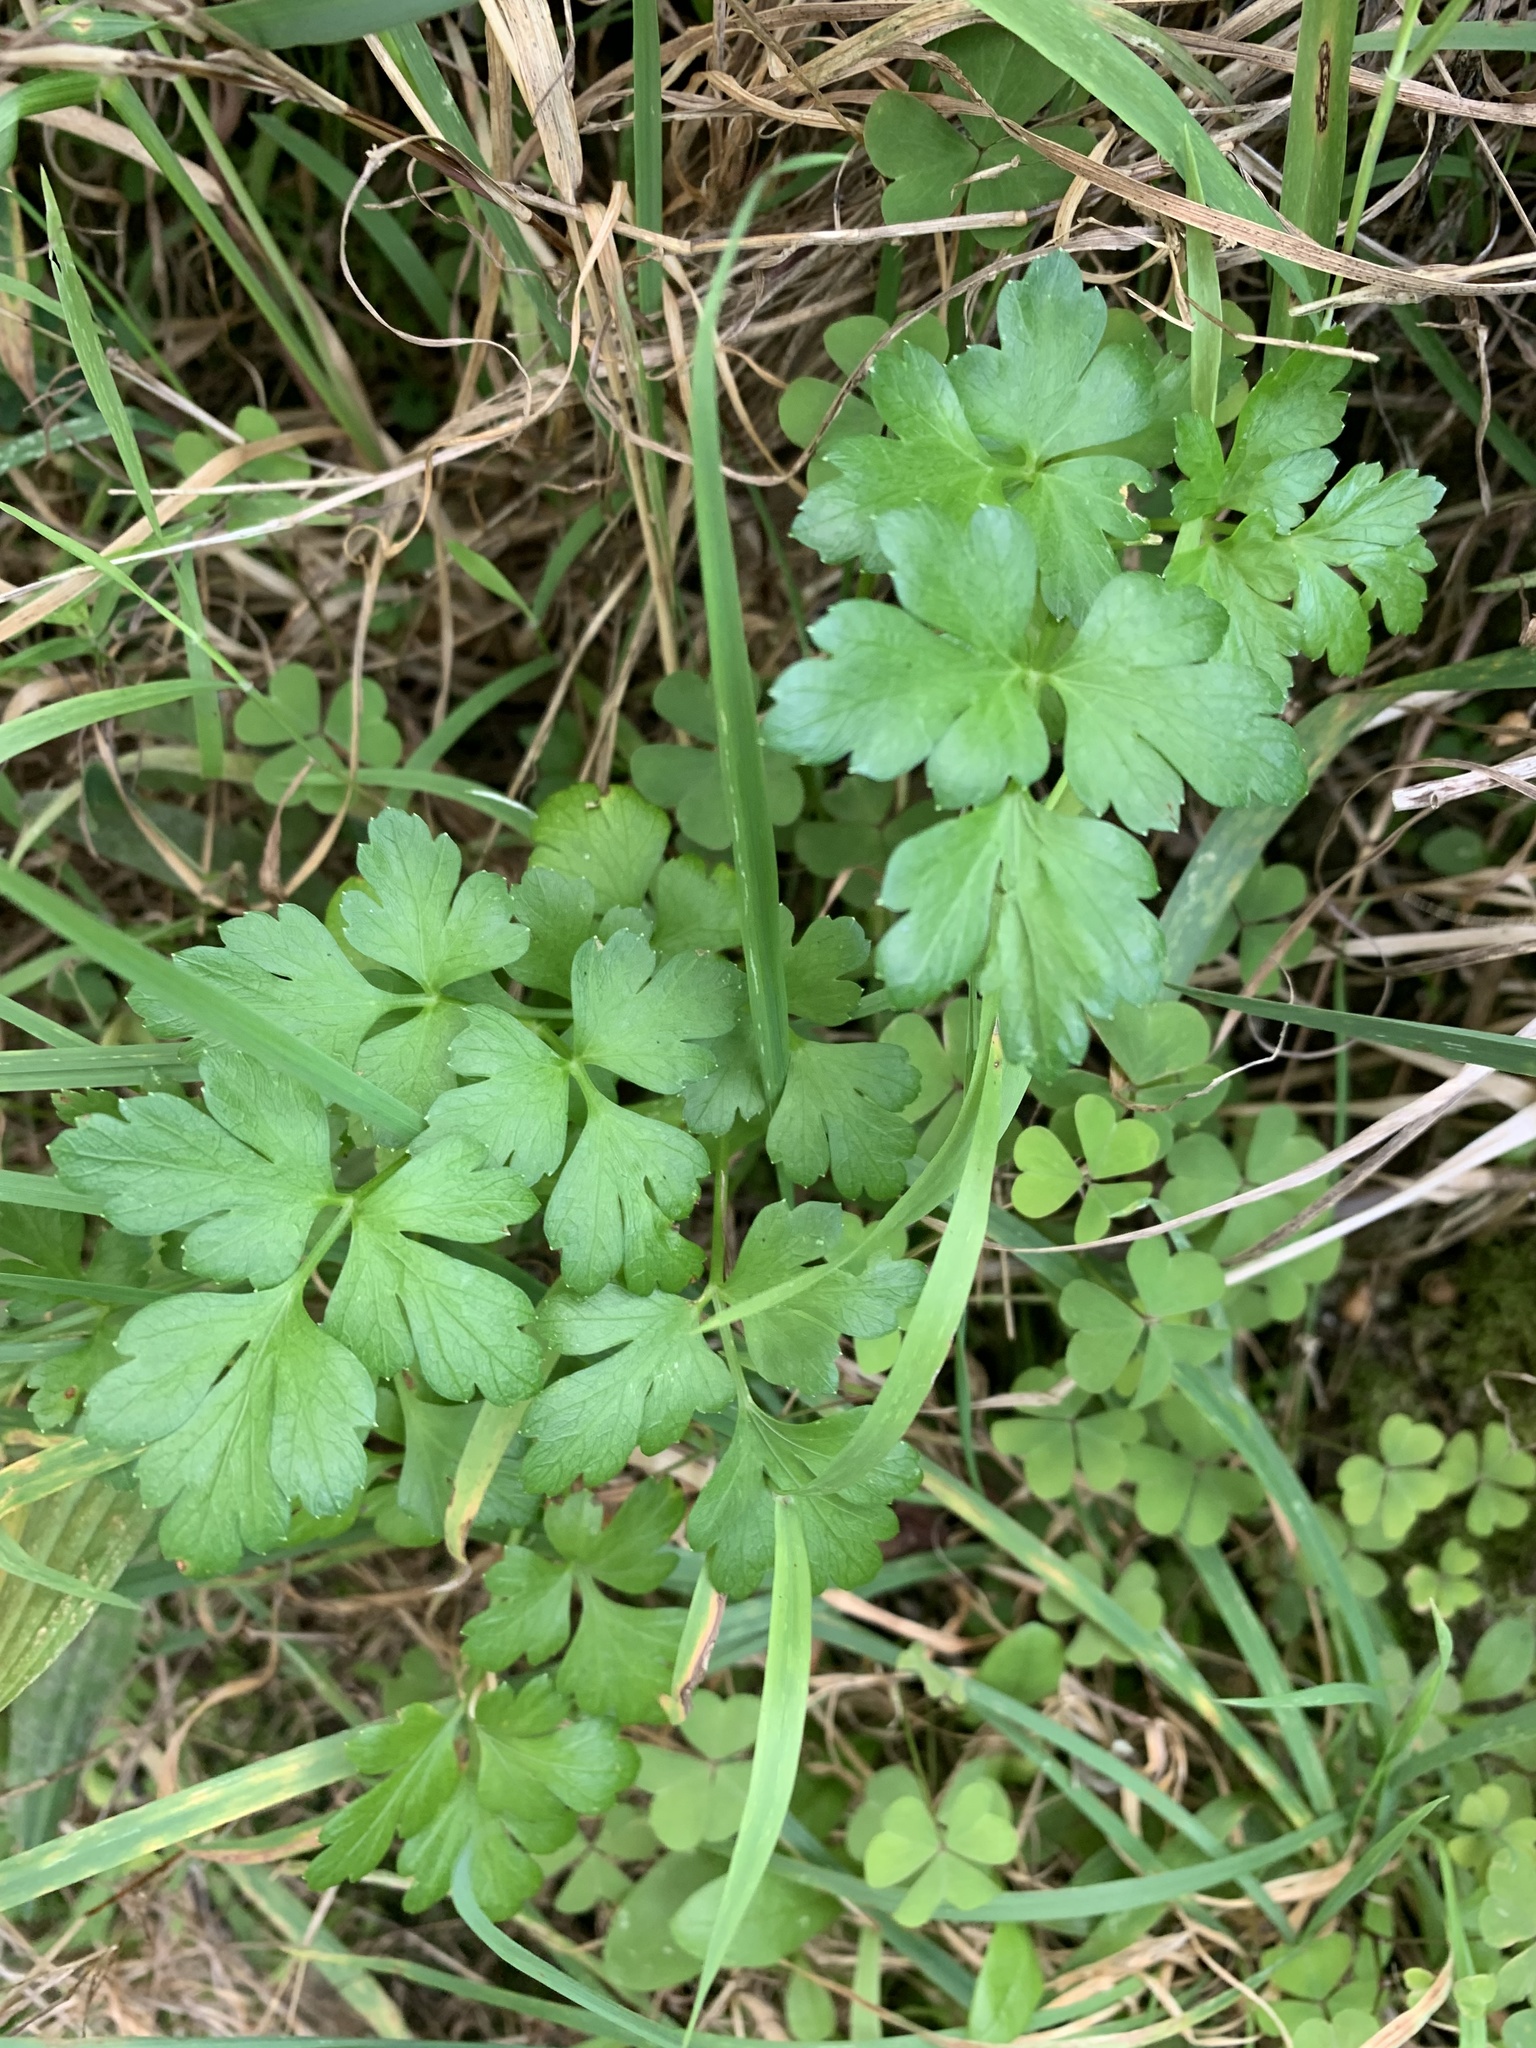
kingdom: Plantae
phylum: Tracheophyta
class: Magnoliopsida
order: Apiales
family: Apiaceae
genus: Petroselinum
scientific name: Petroselinum crispum
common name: Parsley
